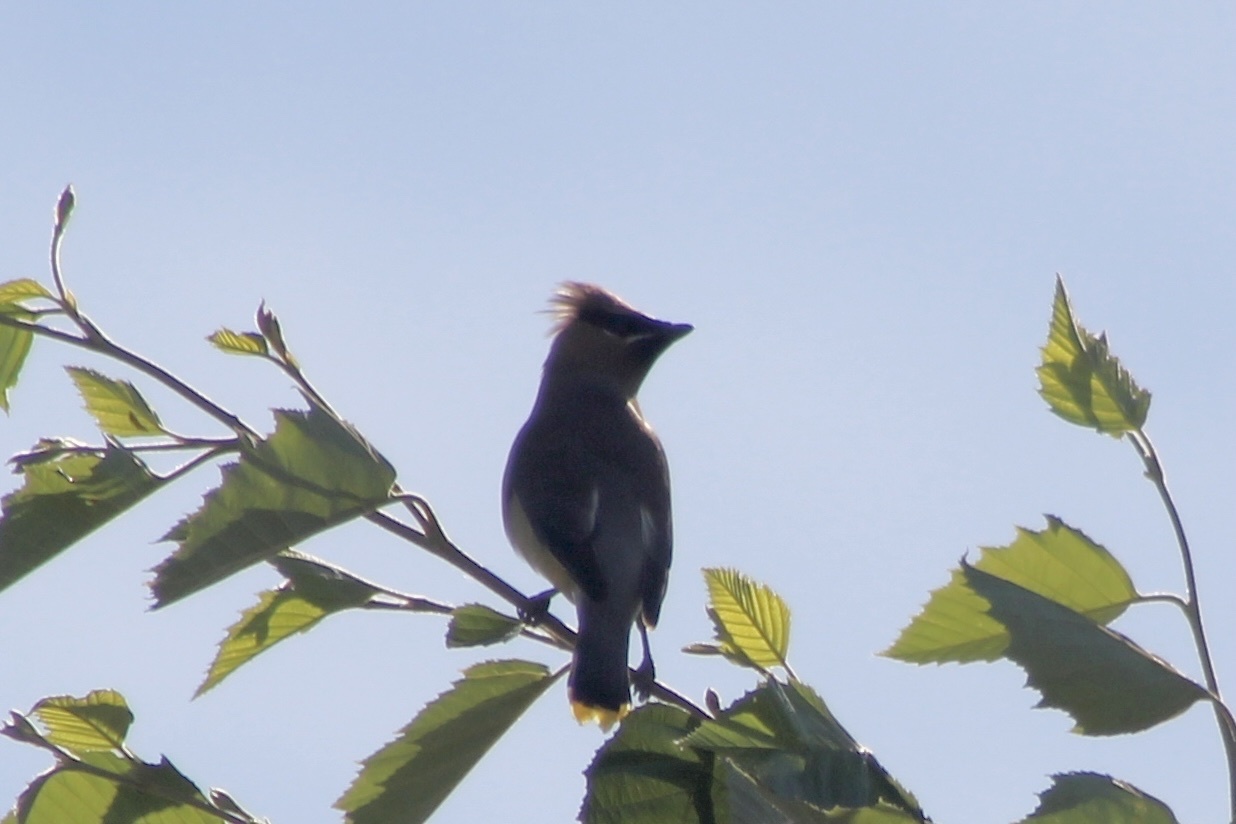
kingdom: Animalia
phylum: Chordata
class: Aves
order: Passeriformes
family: Bombycillidae
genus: Bombycilla
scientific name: Bombycilla cedrorum
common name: Cedar waxwing
